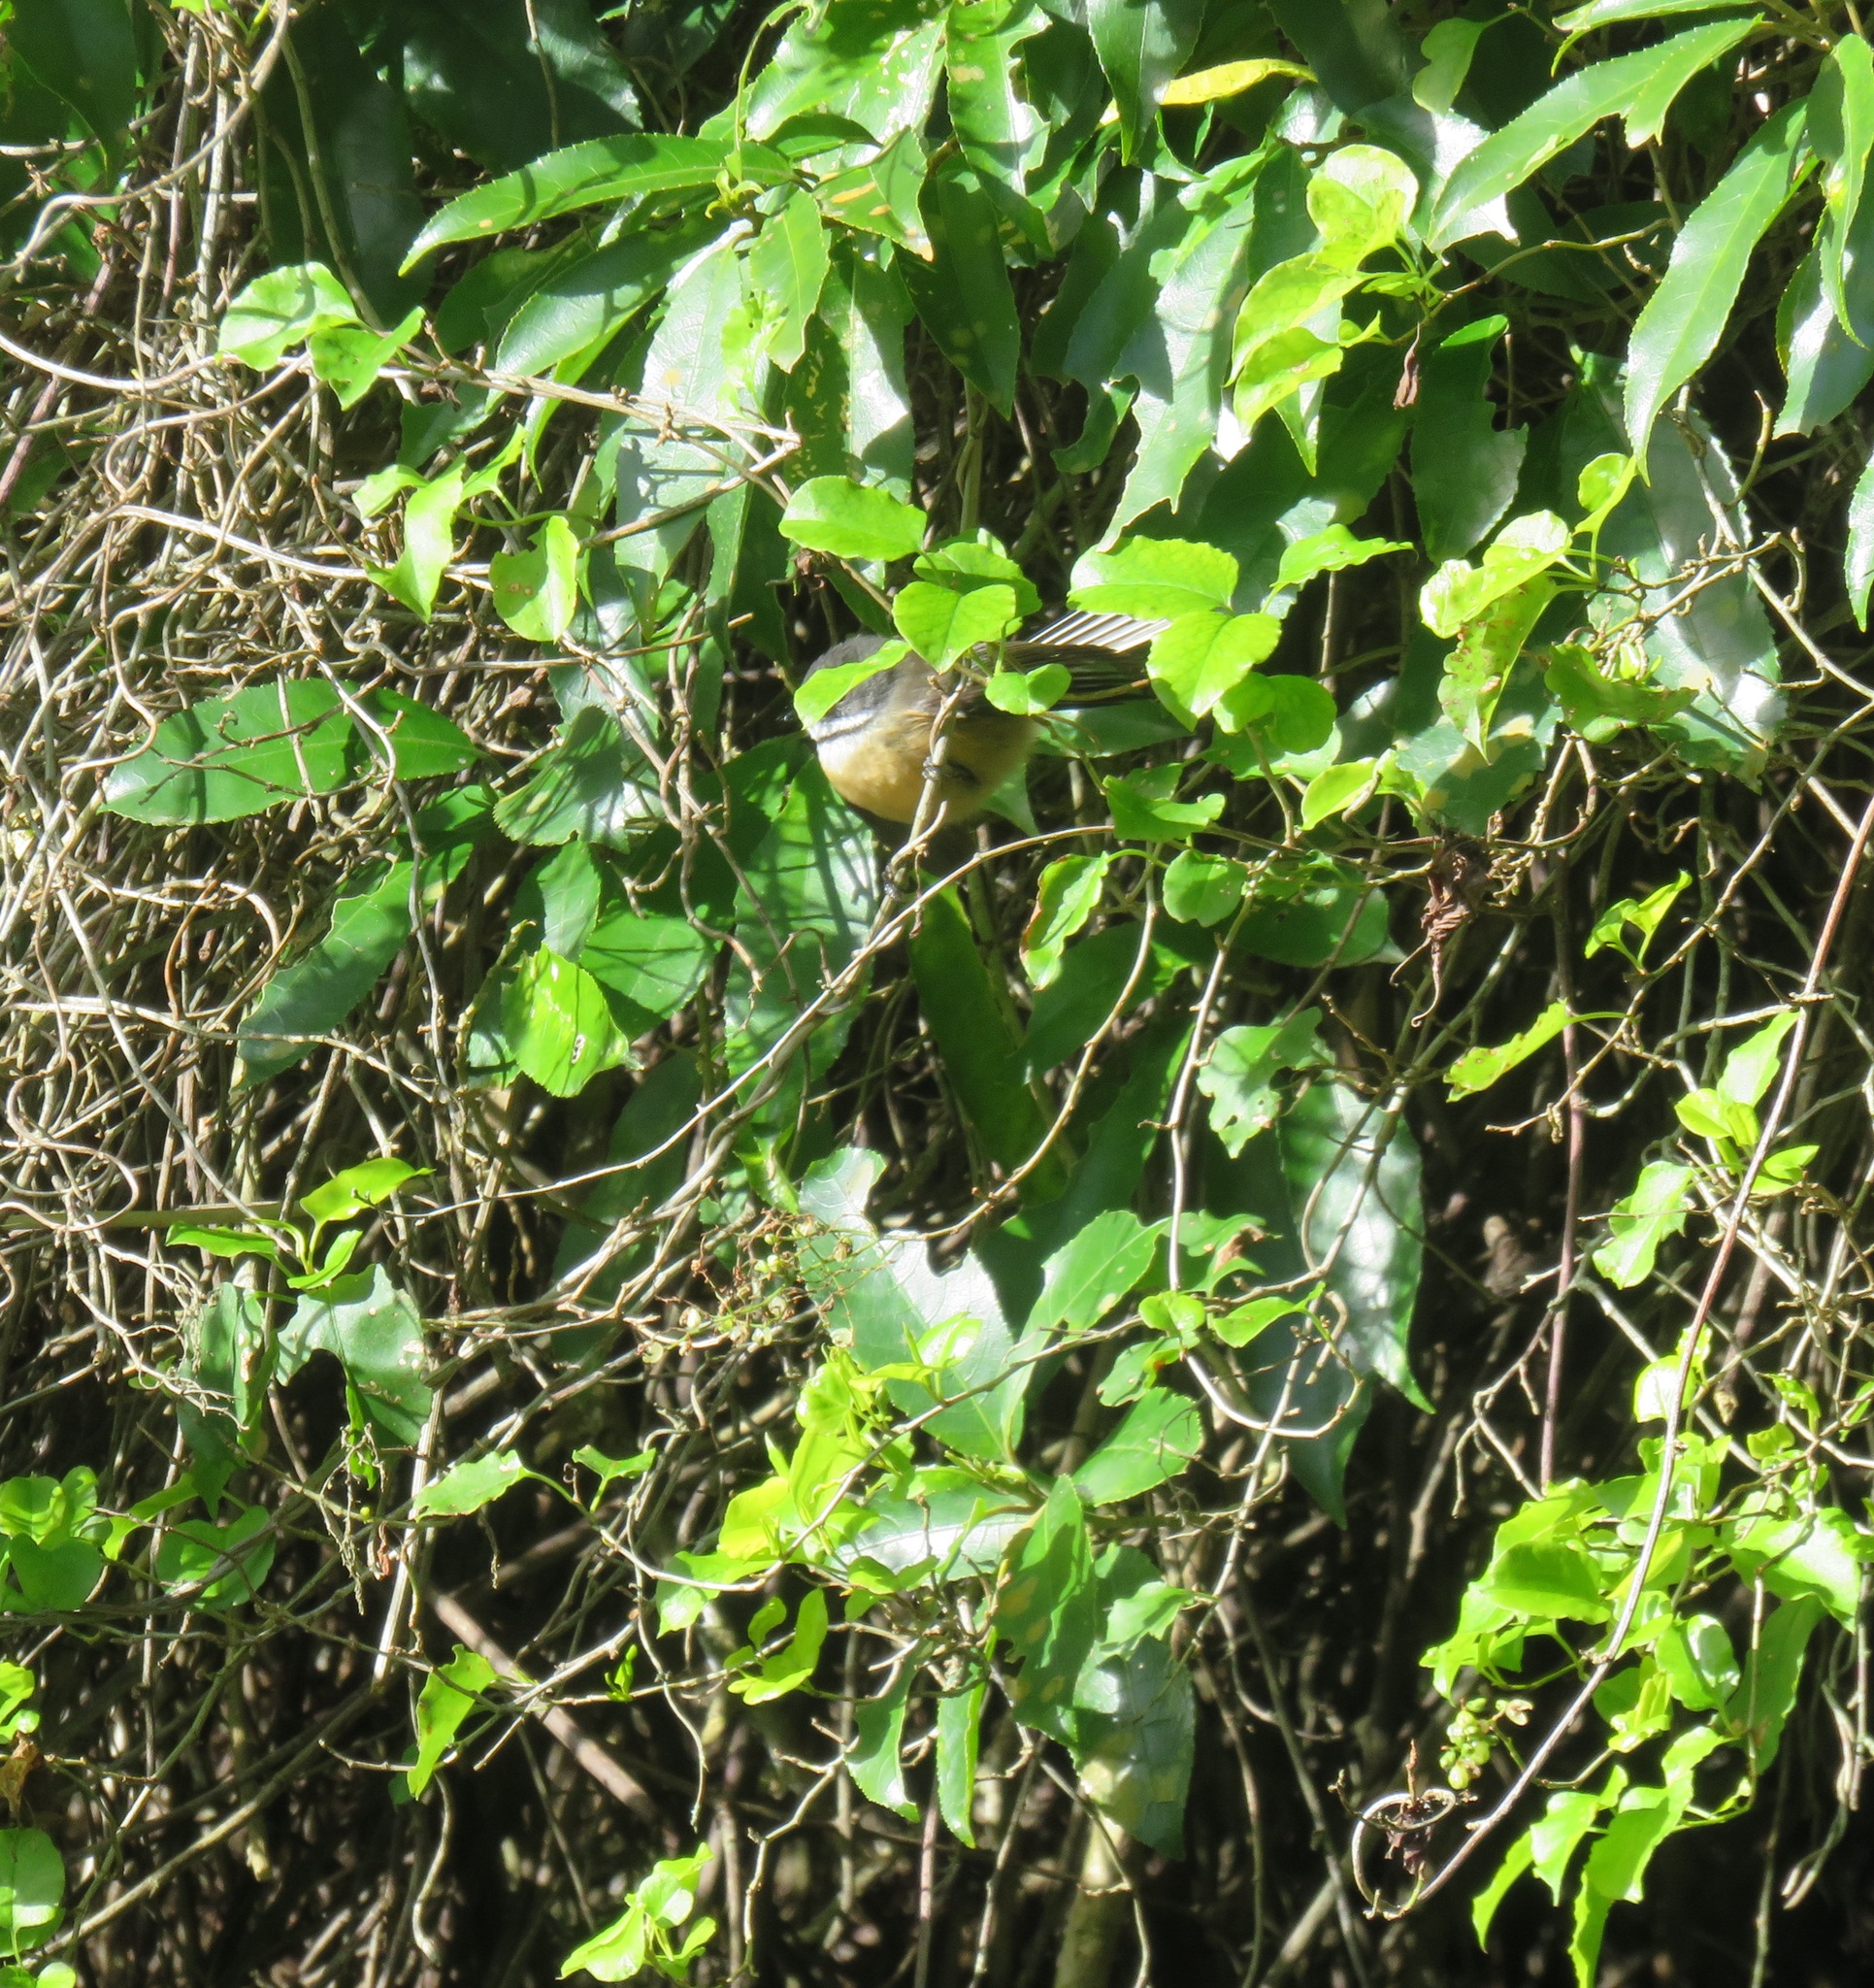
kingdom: Animalia
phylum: Chordata
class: Aves
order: Passeriformes
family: Rhipiduridae
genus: Rhipidura
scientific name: Rhipidura fuliginosa
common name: New zealand fantail
